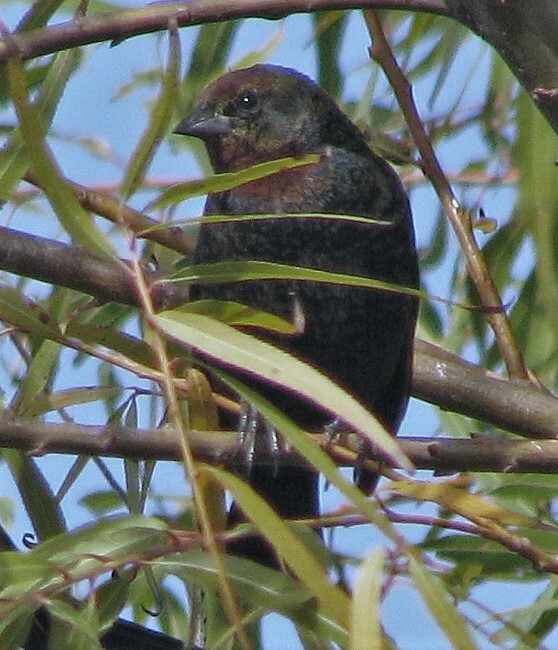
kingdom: Animalia
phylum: Chordata
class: Aves
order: Passeriformes
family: Icteridae
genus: Chrysomus
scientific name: Chrysomus ruficapillus
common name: Chestnut-capped blackbird
